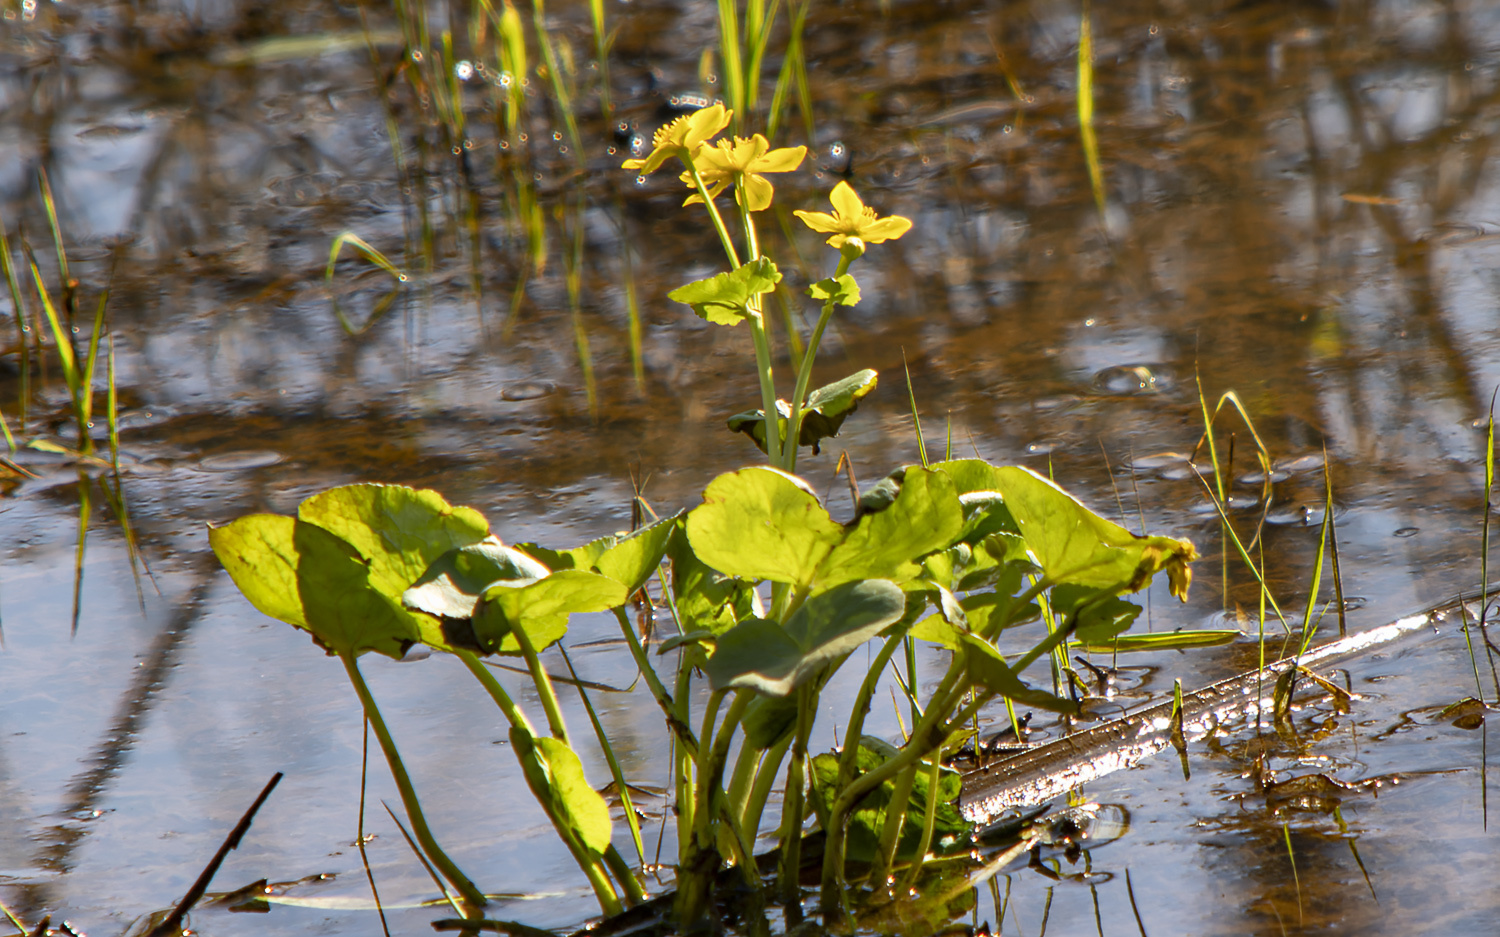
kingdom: Plantae
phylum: Tracheophyta
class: Magnoliopsida
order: Ranunculales
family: Ranunculaceae
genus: Caltha
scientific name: Caltha palustris
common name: Marsh marigold
